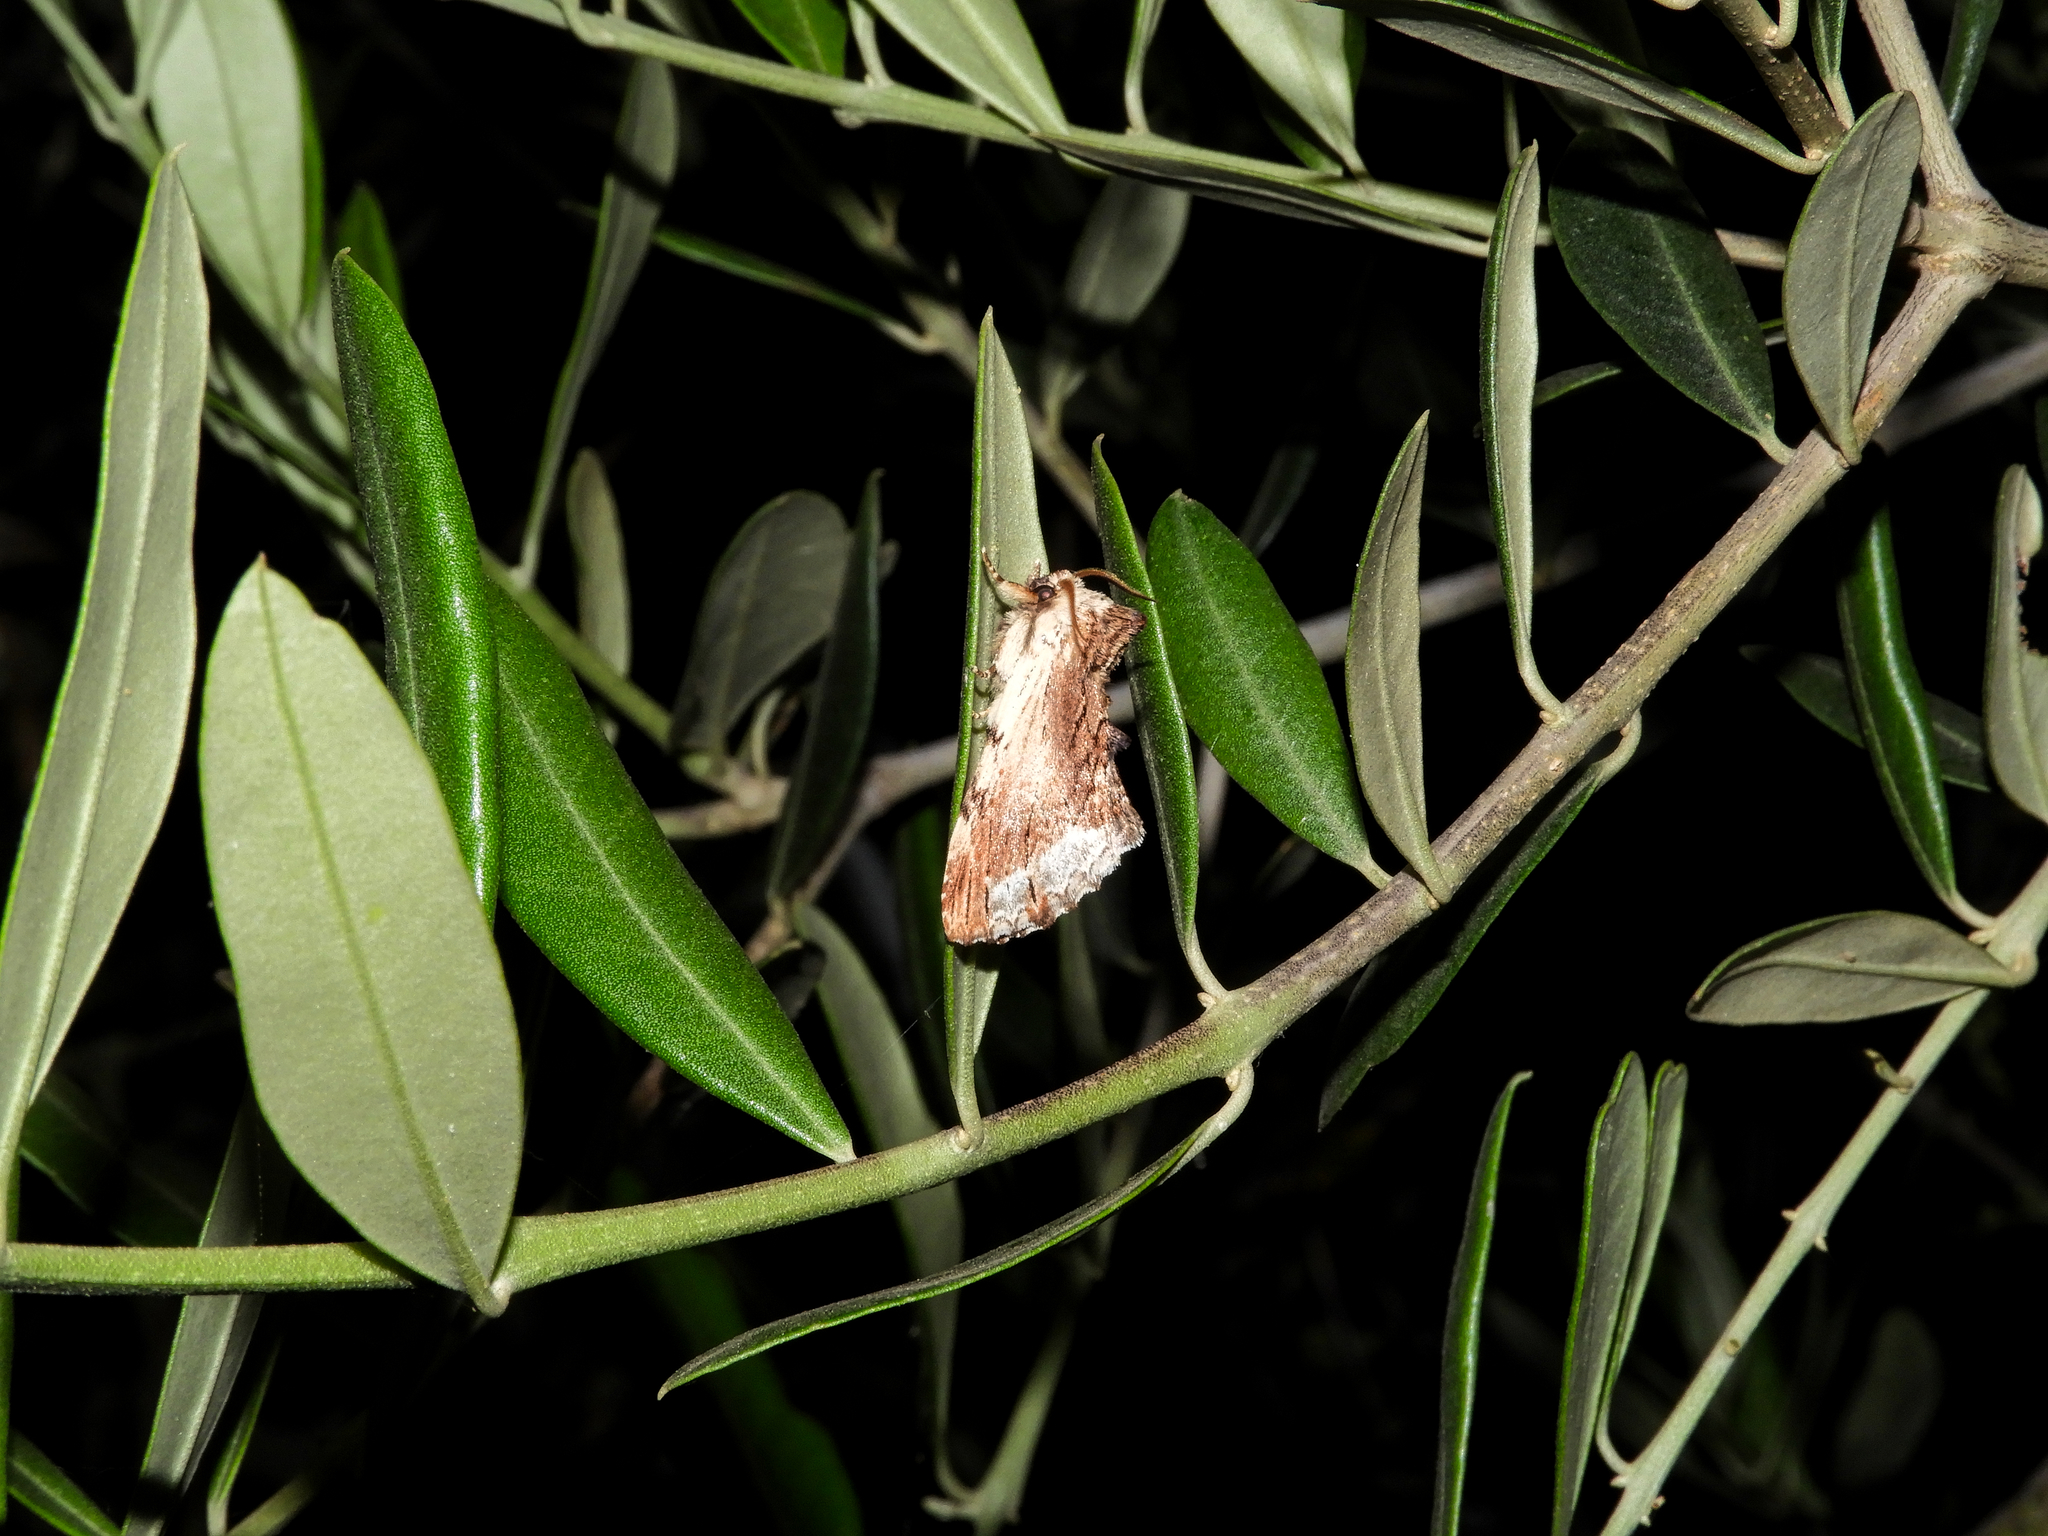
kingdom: Animalia
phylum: Arthropoda
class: Insecta
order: Lepidoptera
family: Notodontidae
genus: Ptilodon
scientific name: Ptilodon cucullina
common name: Maple prominent
